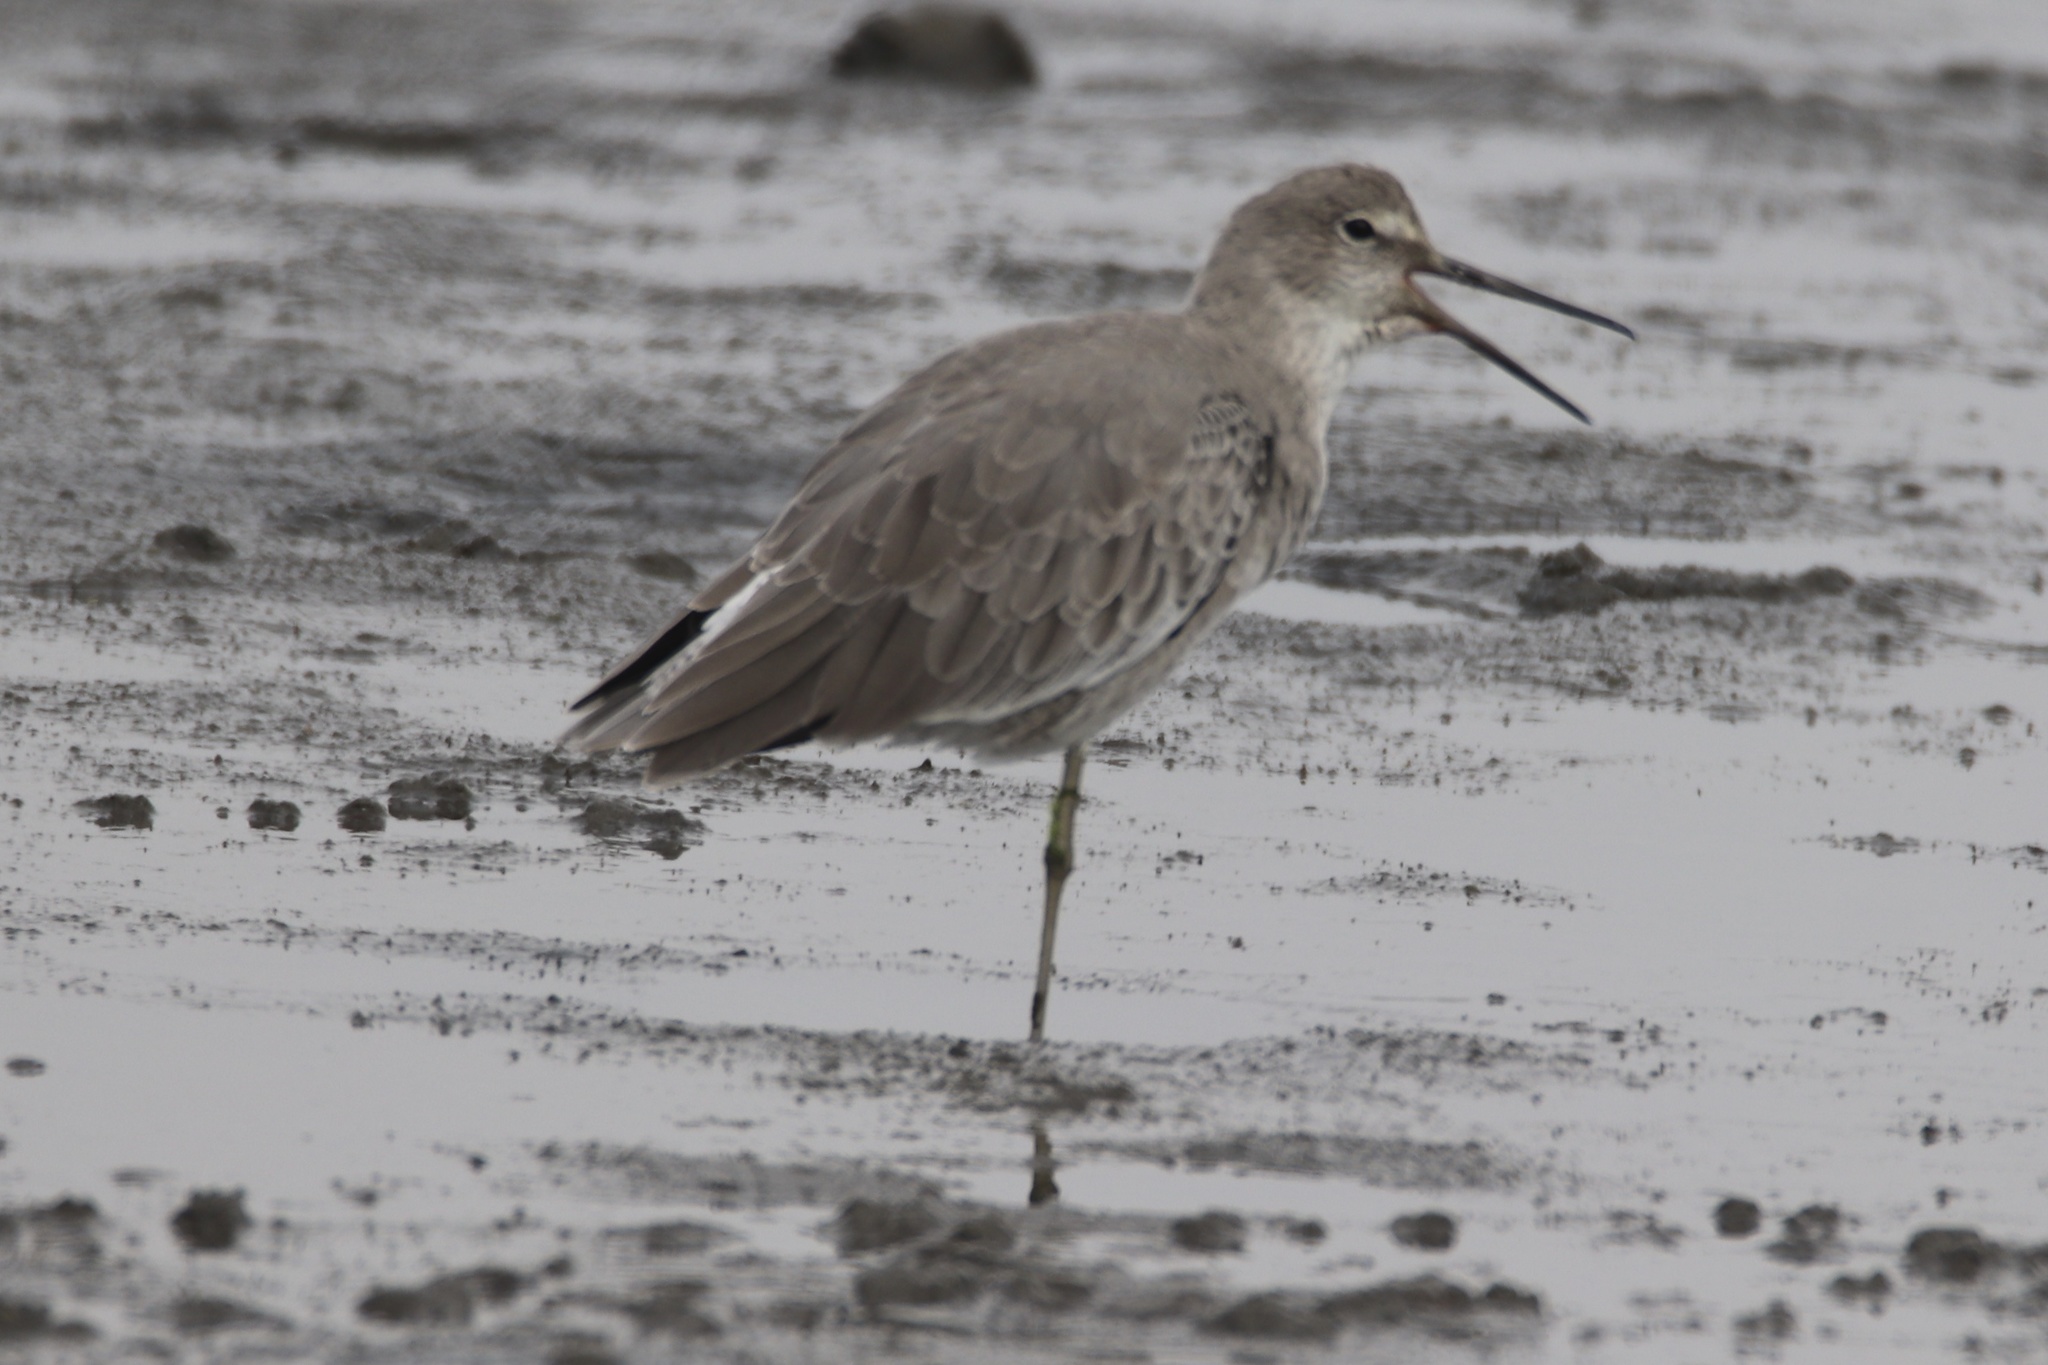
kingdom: Animalia
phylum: Chordata
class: Aves
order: Charadriiformes
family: Scolopacidae
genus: Tringa
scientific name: Tringa semipalmata
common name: Willet
